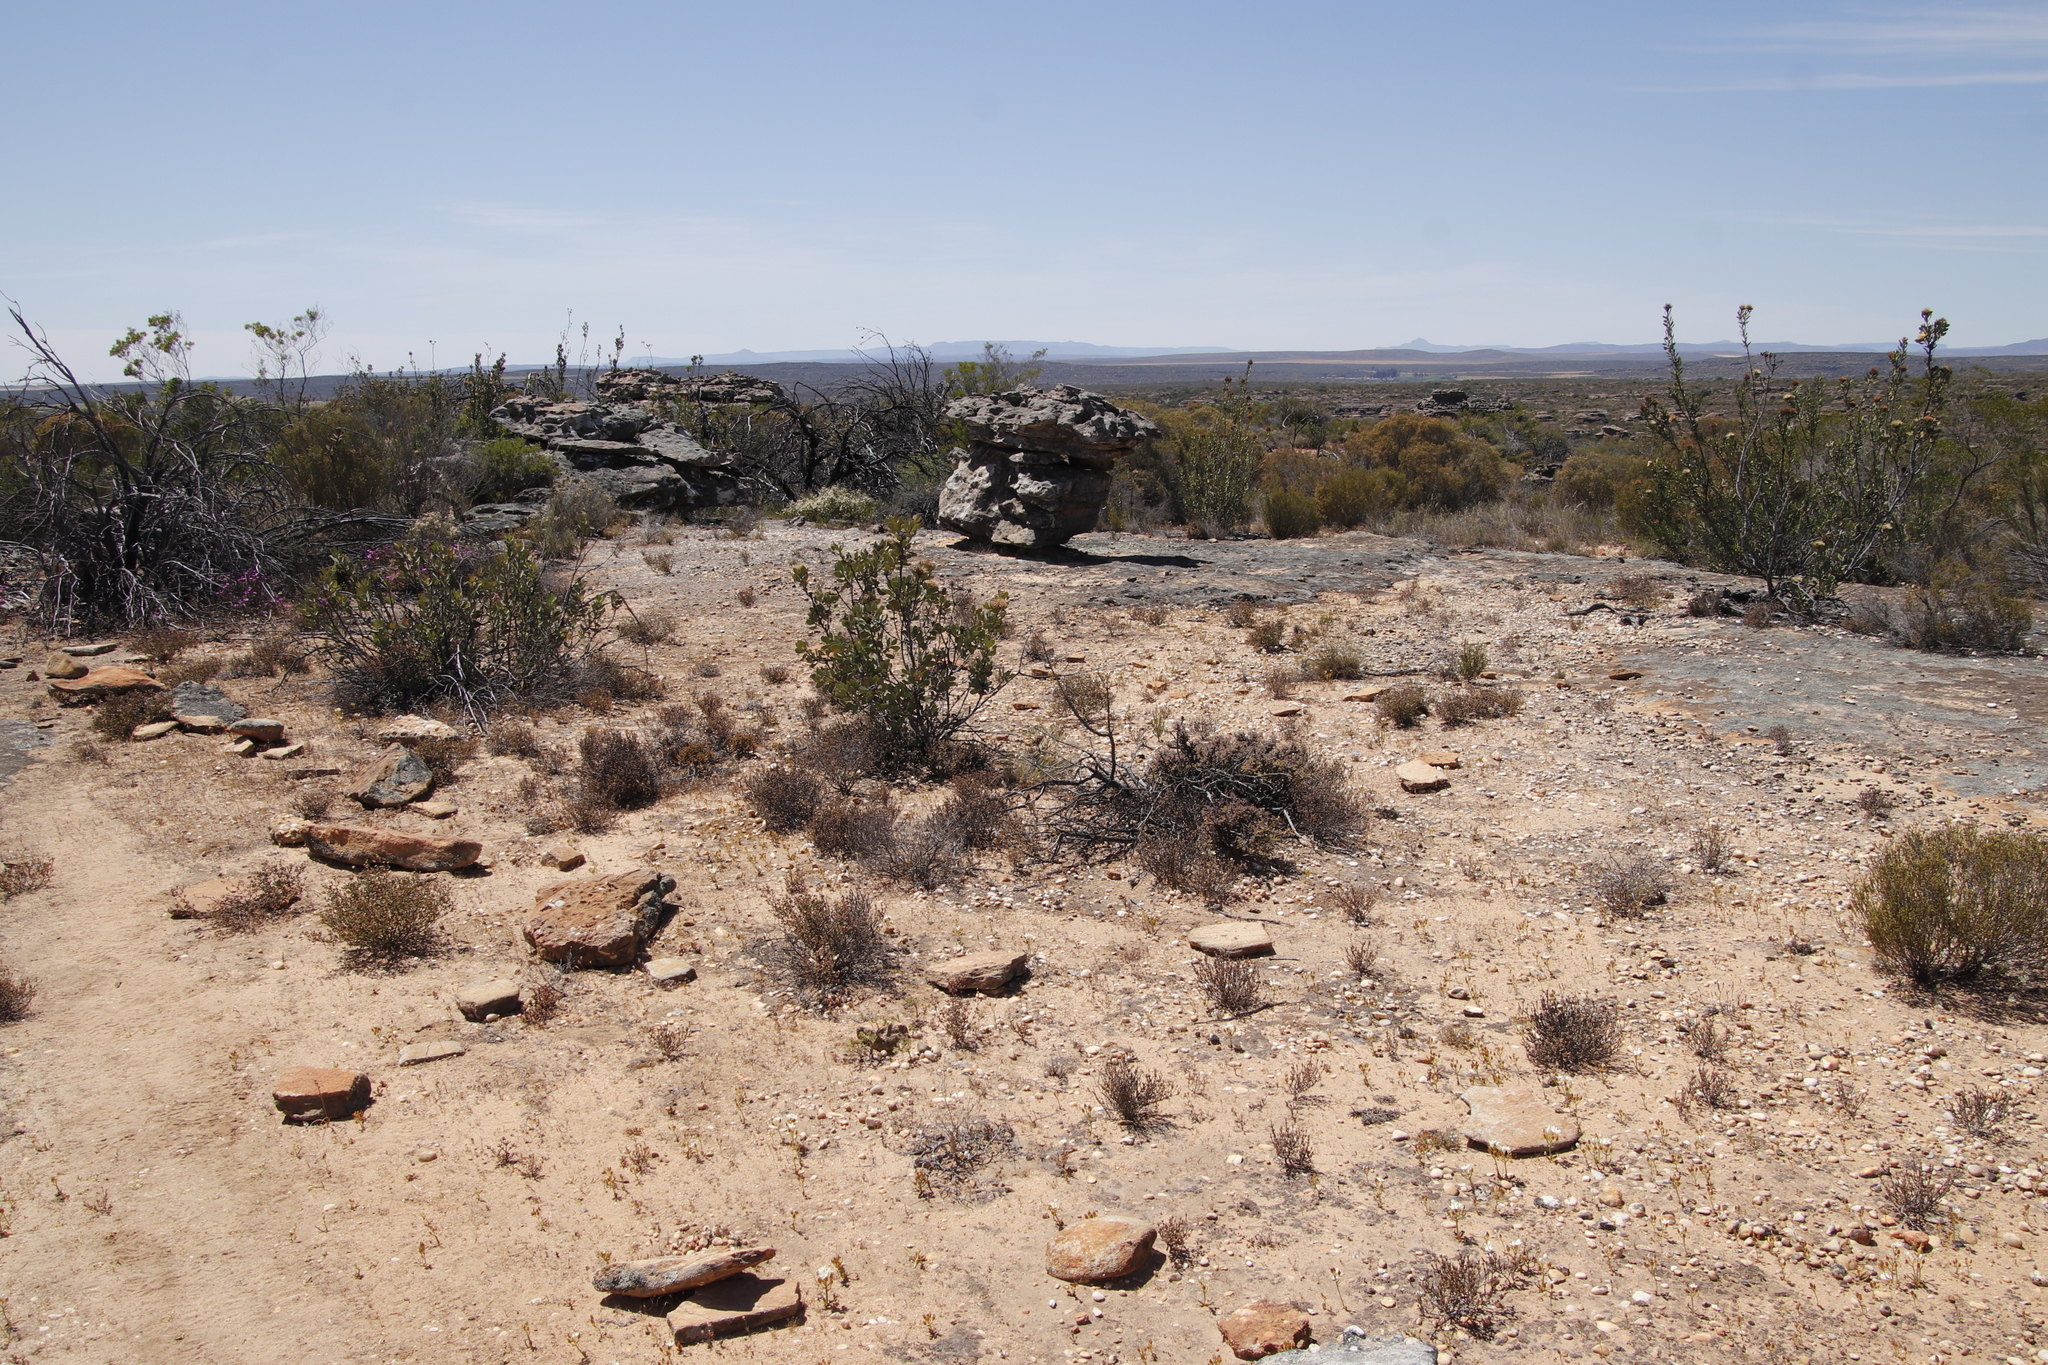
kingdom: Plantae
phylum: Tracheophyta
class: Magnoliopsida
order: Proteales
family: Proteaceae
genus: Protea
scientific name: Protea glabra
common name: Chestnut sugarbush
